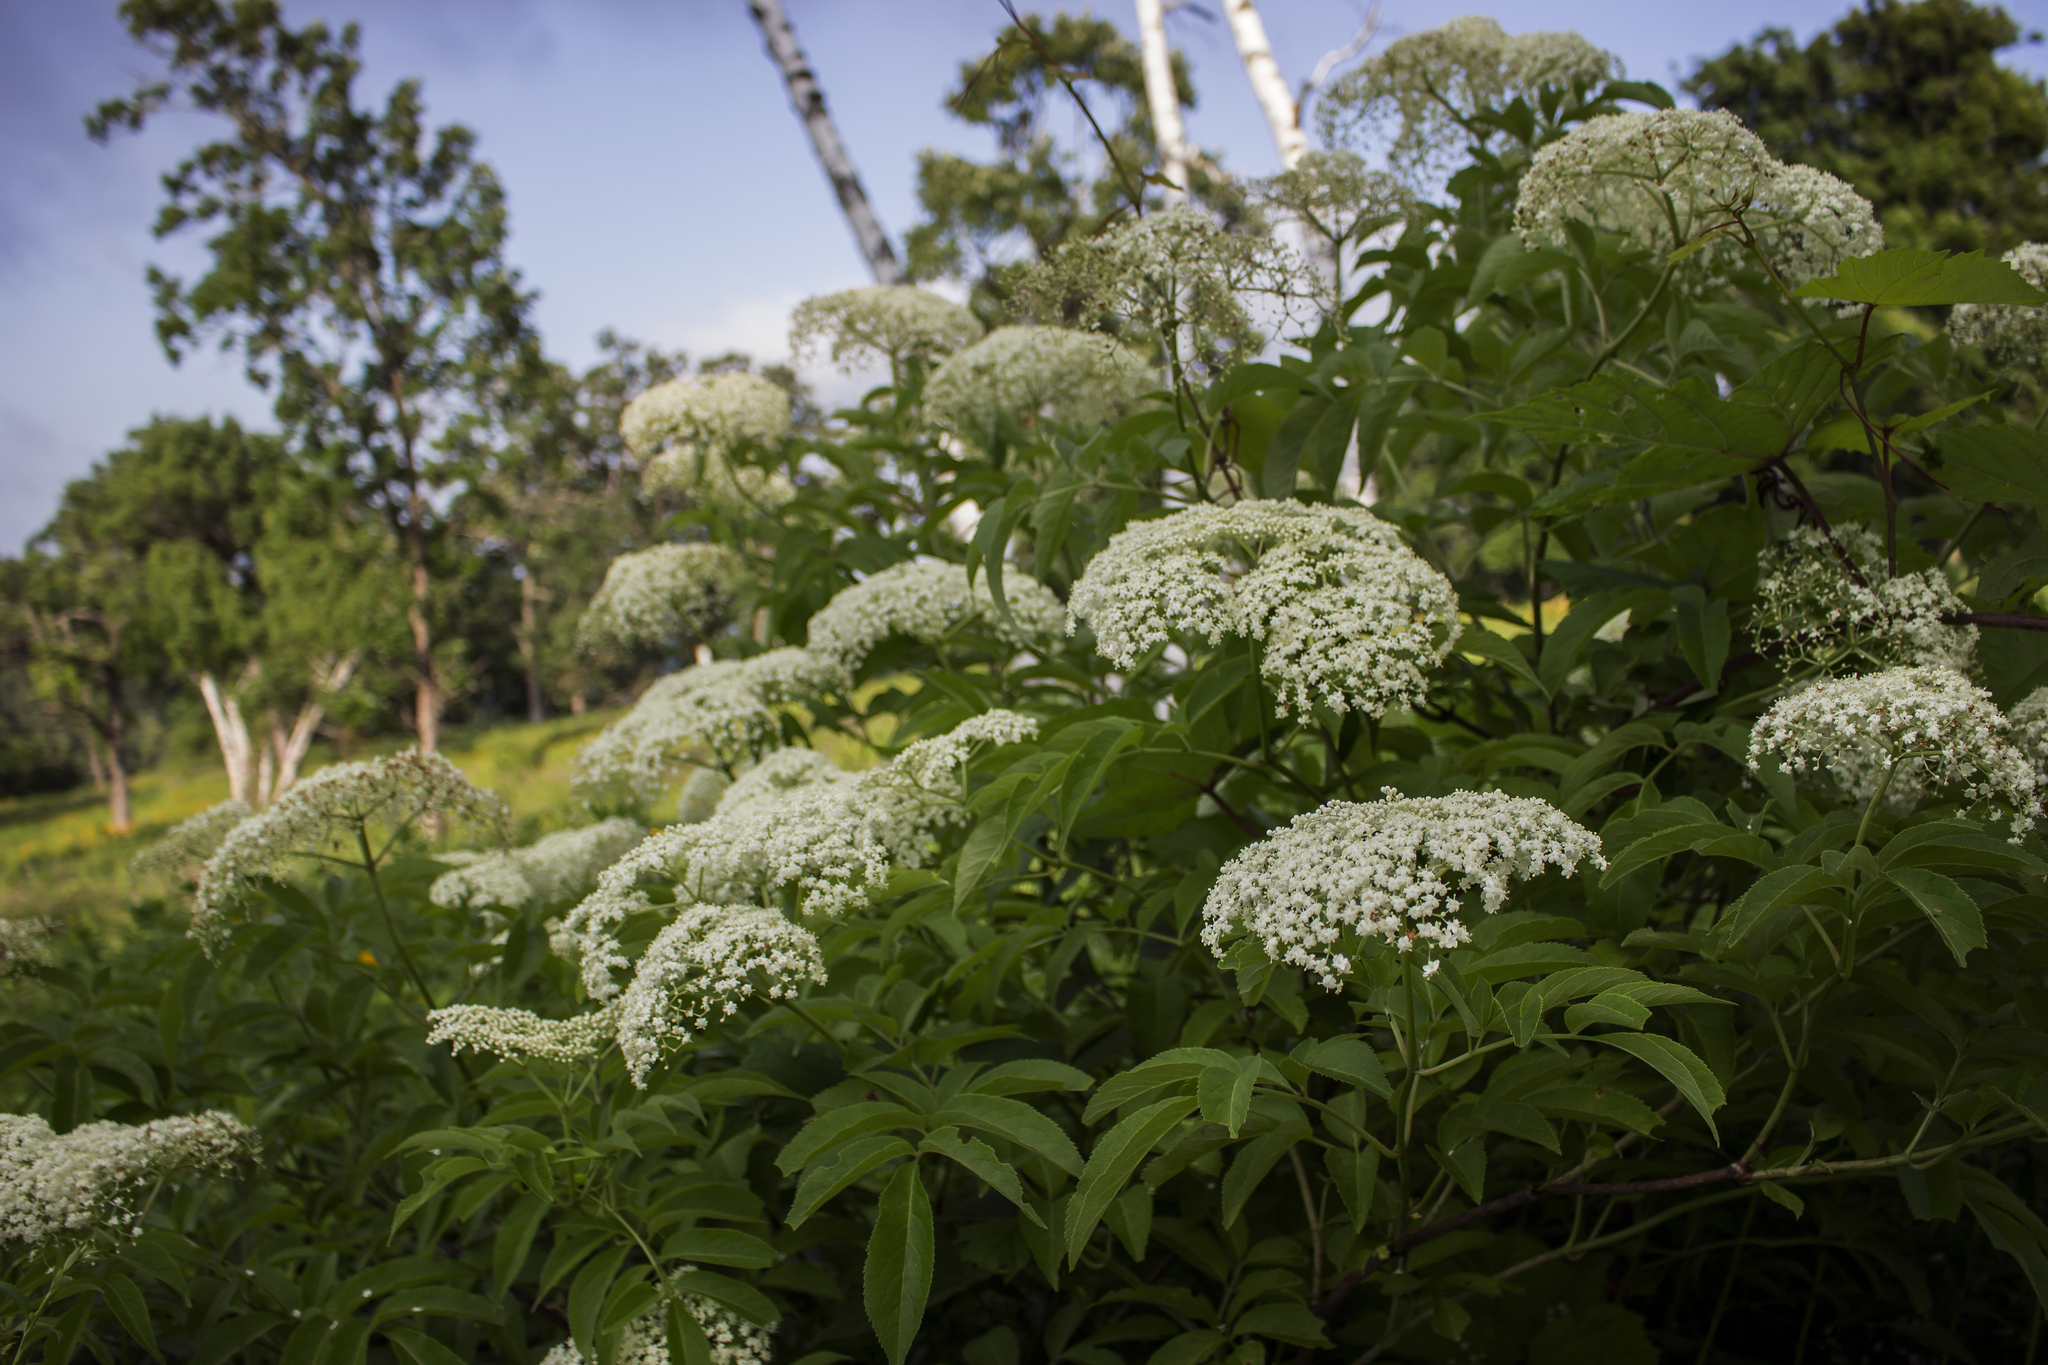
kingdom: Plantae
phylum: Tracheophyta
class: Magnoliopsida
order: Dipsacales
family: Viburnaceae
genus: Sambucus
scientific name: Sambucus canadensis
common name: American elder
